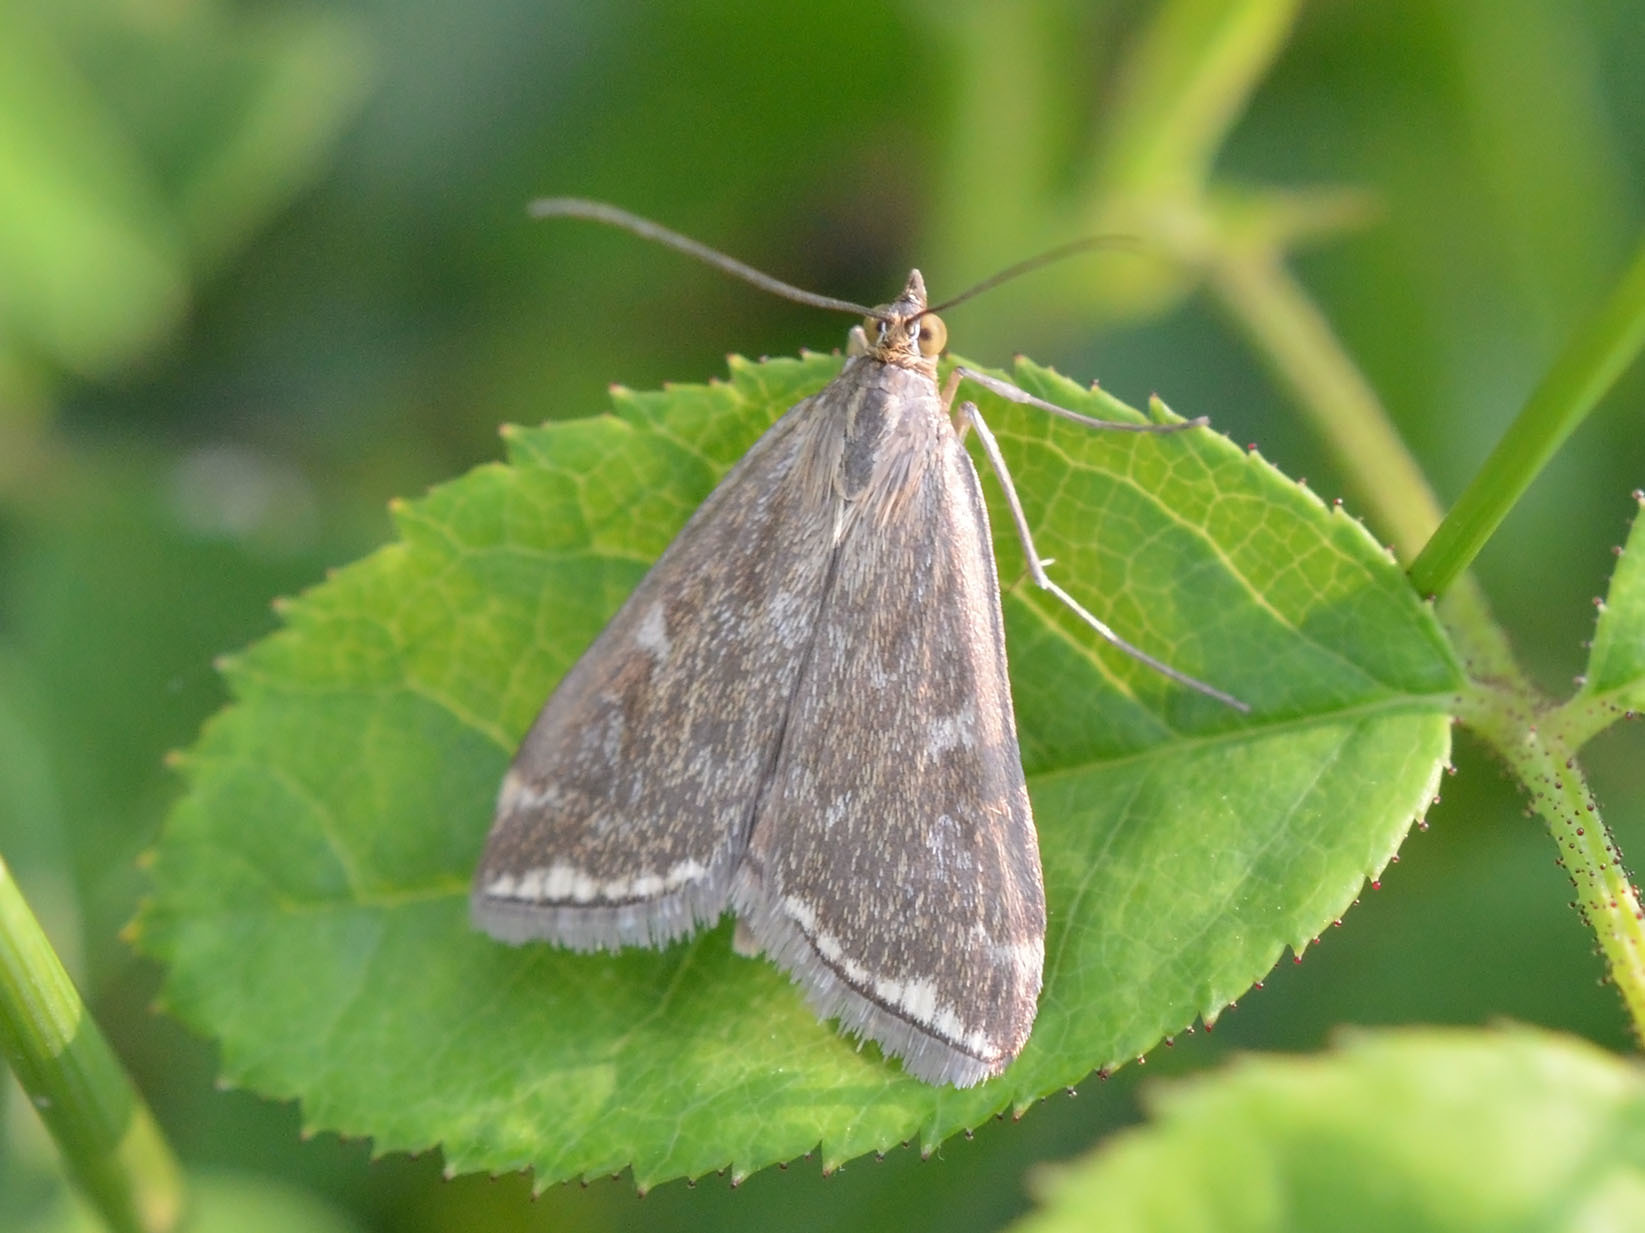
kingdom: Animalia
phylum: Arthropoda
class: Insecta
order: Lepidoptera
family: Crambidae
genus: Loxostege
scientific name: Loxostege sticticalis
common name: Crambid moth
